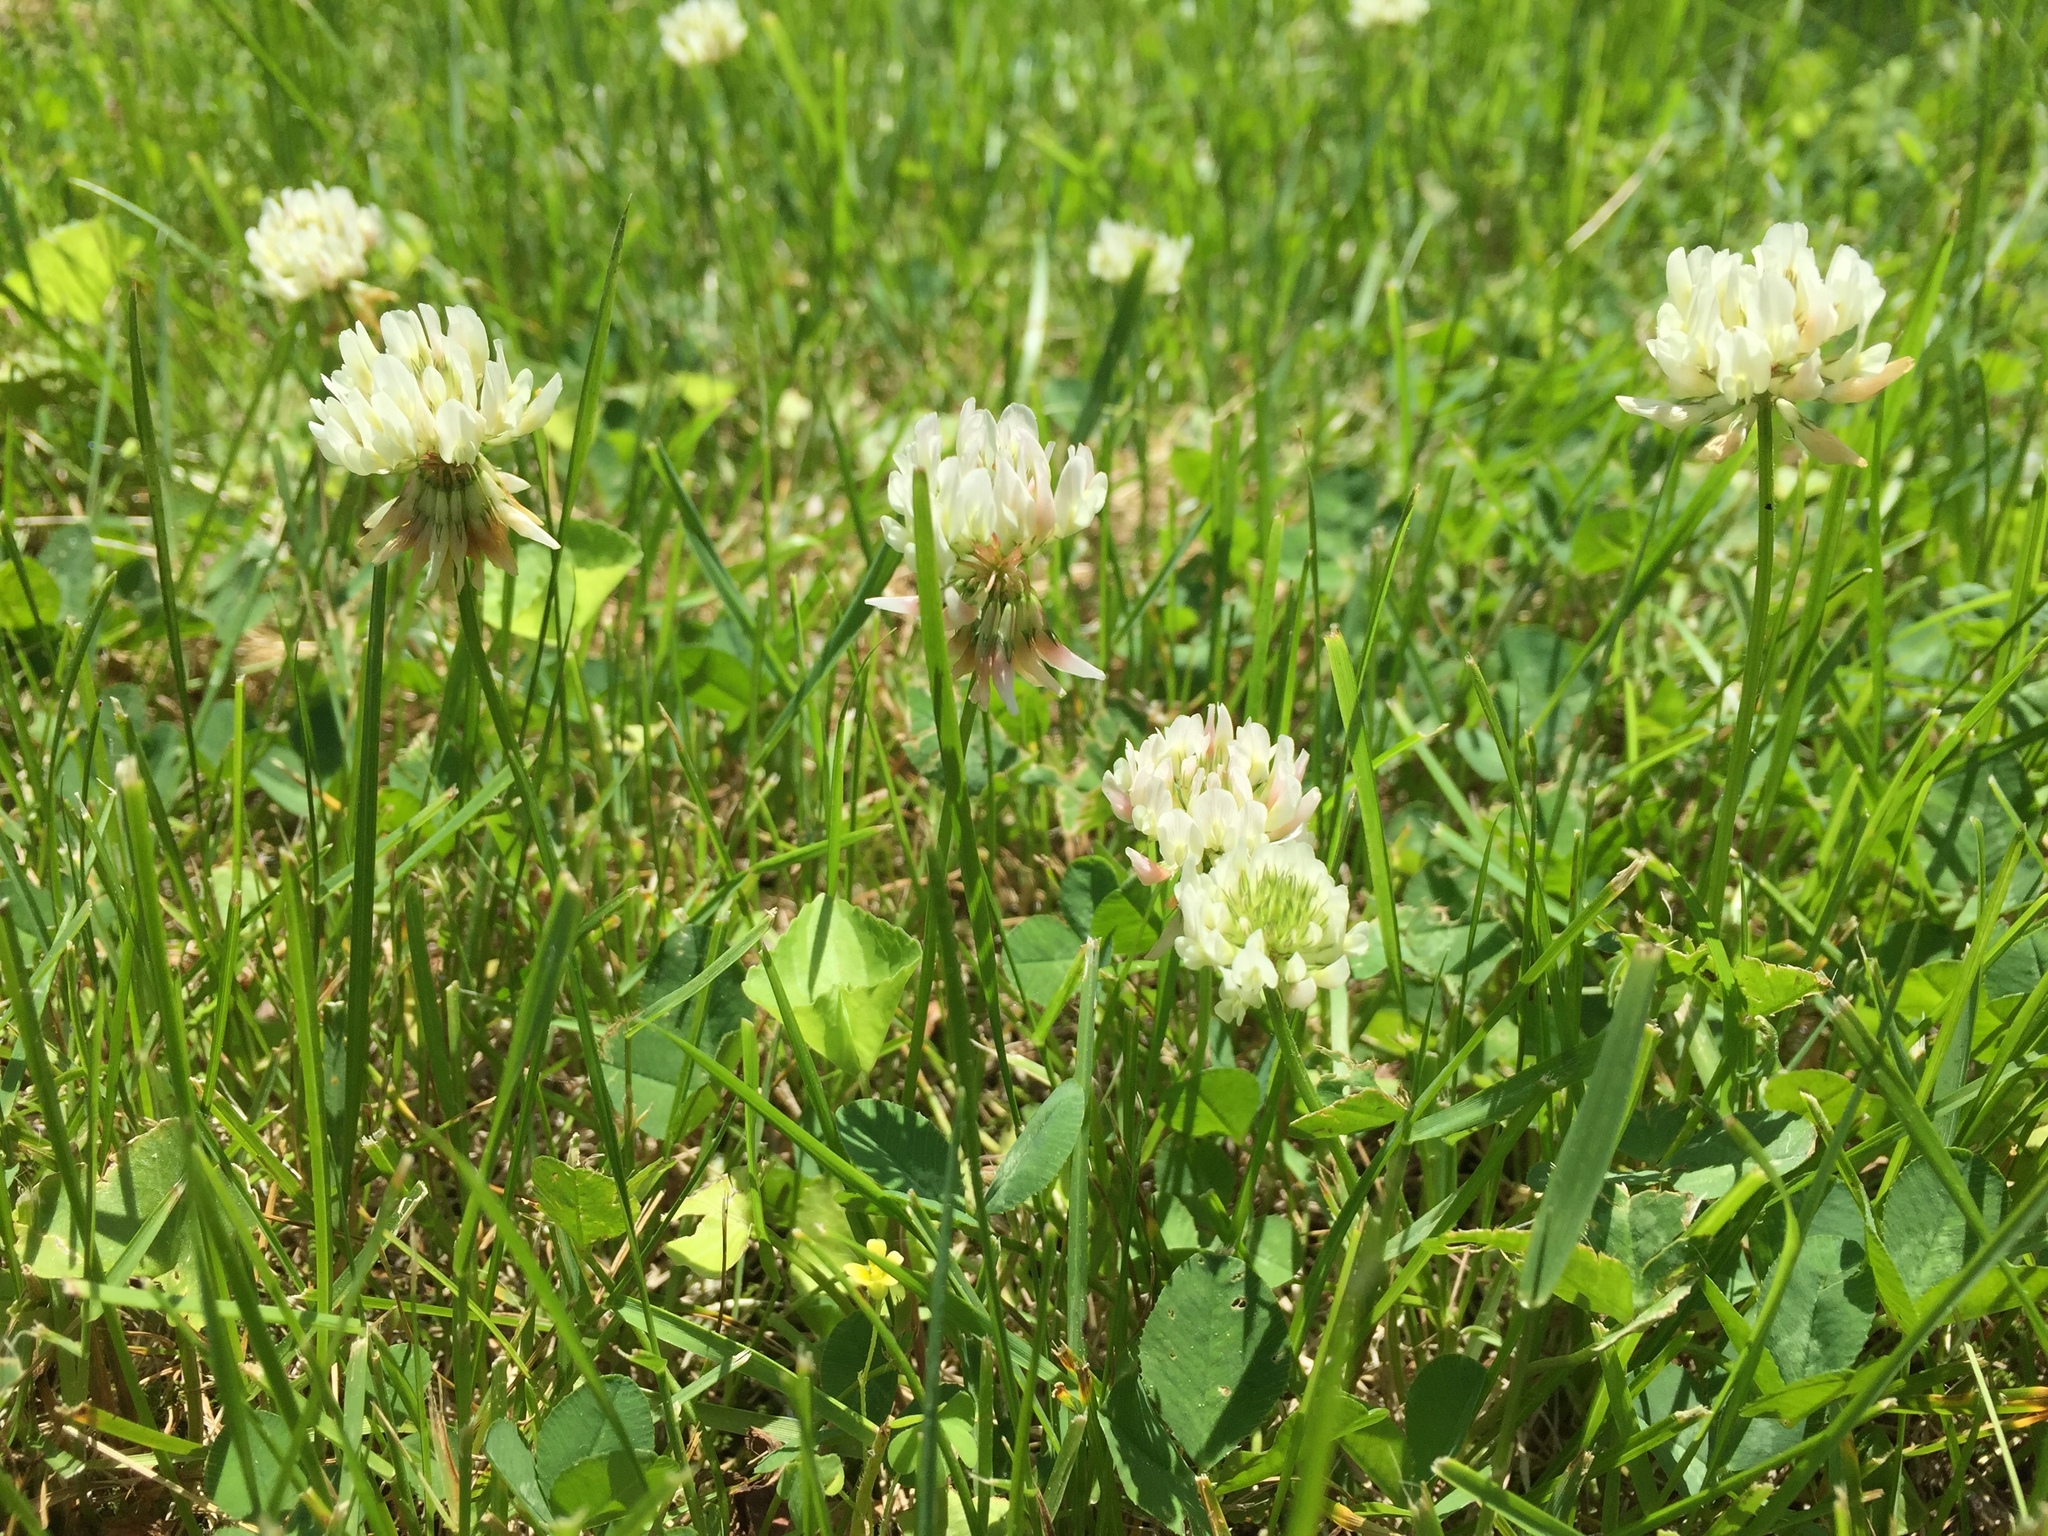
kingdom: Plantae
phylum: Tracheophyta
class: Magnoliopsida
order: Fabales
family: Fabaceae
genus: Trifolium
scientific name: Trifolium repens
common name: White clover
